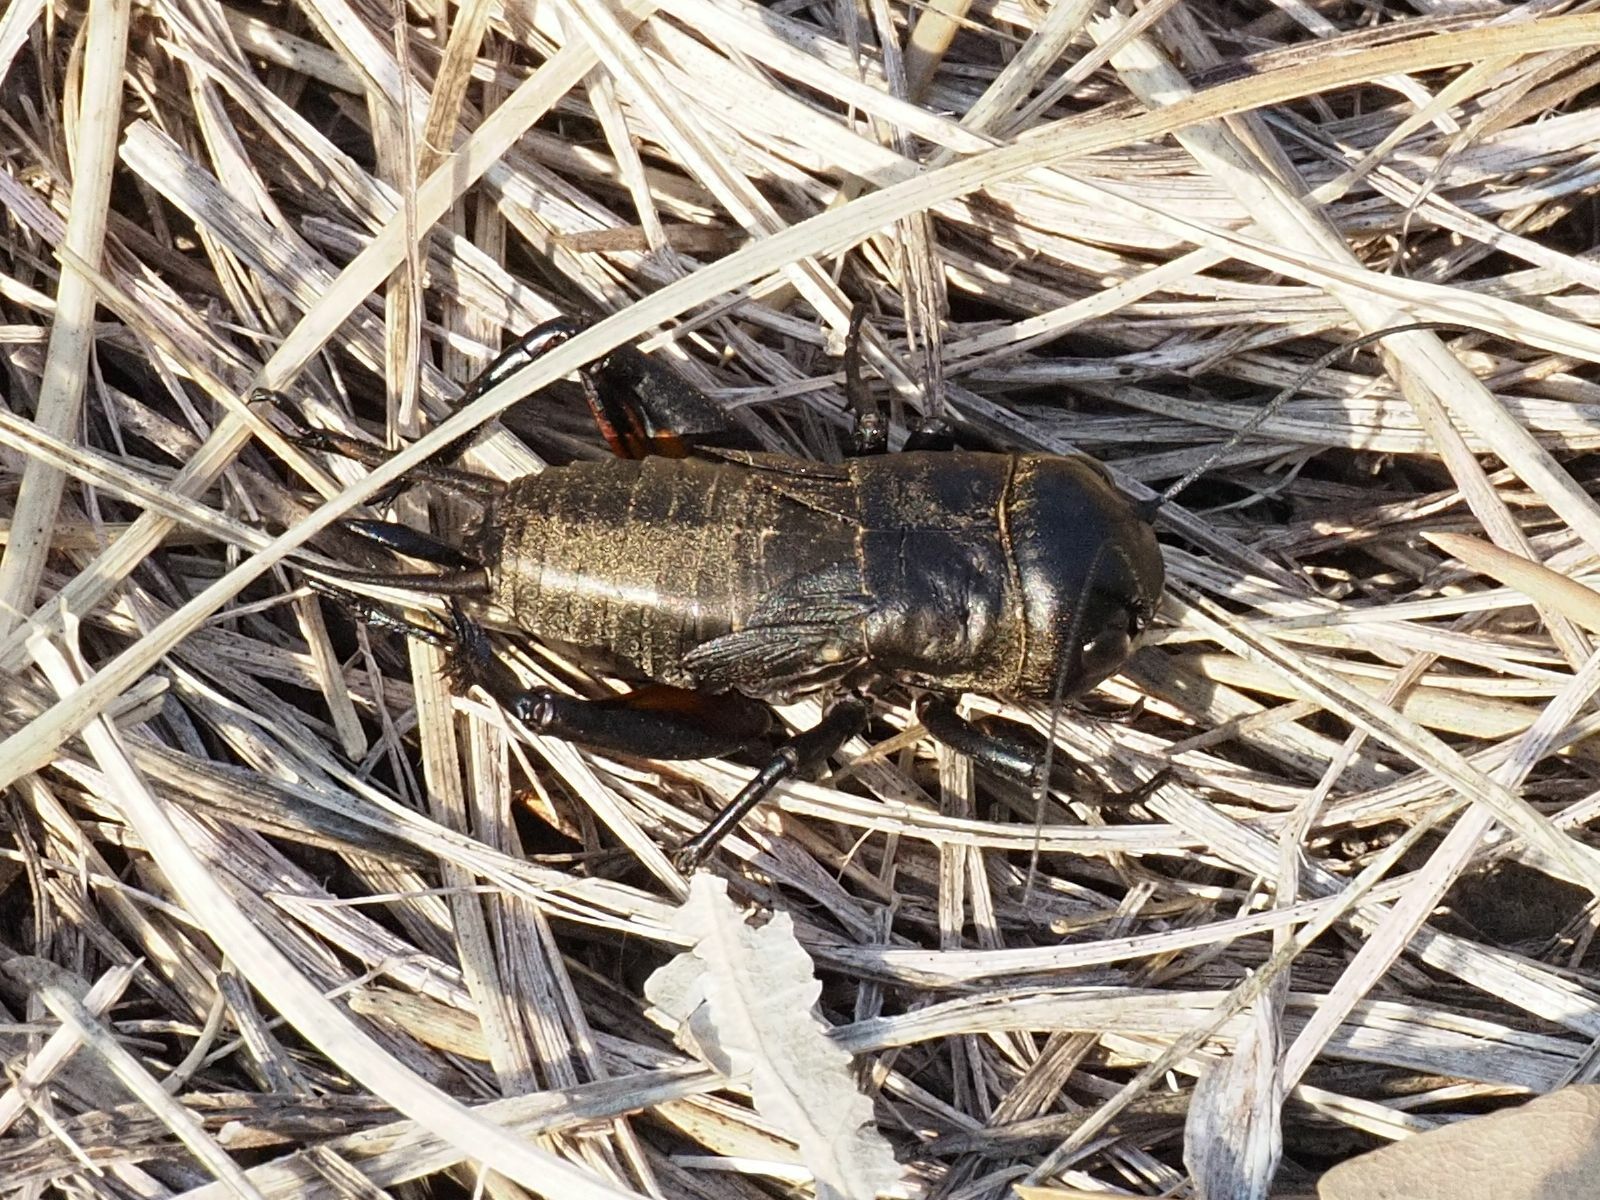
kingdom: Animalia
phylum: Arthropoda
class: Insecta
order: Orthoptera
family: Gryllidae
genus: Gryllus
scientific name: Gryllus campestris
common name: Field cricket
